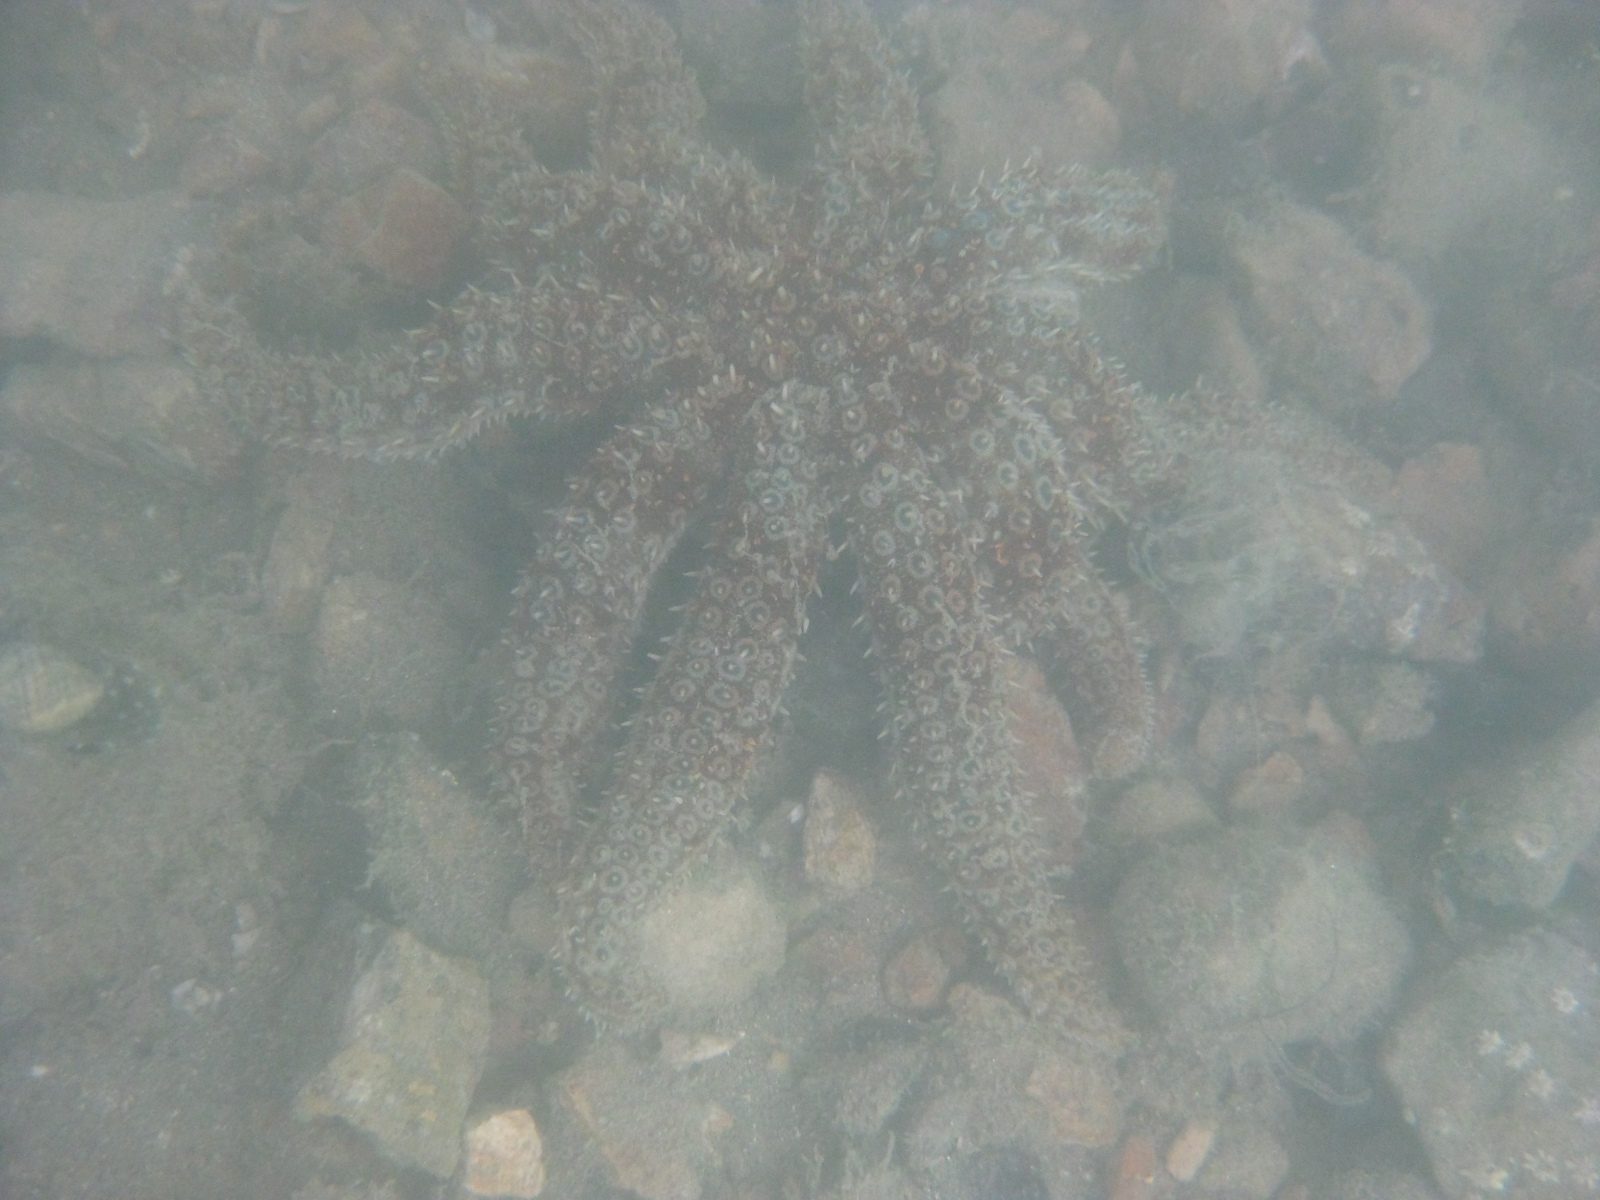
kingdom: Animalia
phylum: Echinodermata
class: Asteroidea
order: Forcipulatida
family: Asteriidae
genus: Coscinasterias
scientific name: Coscinasterias muricata
